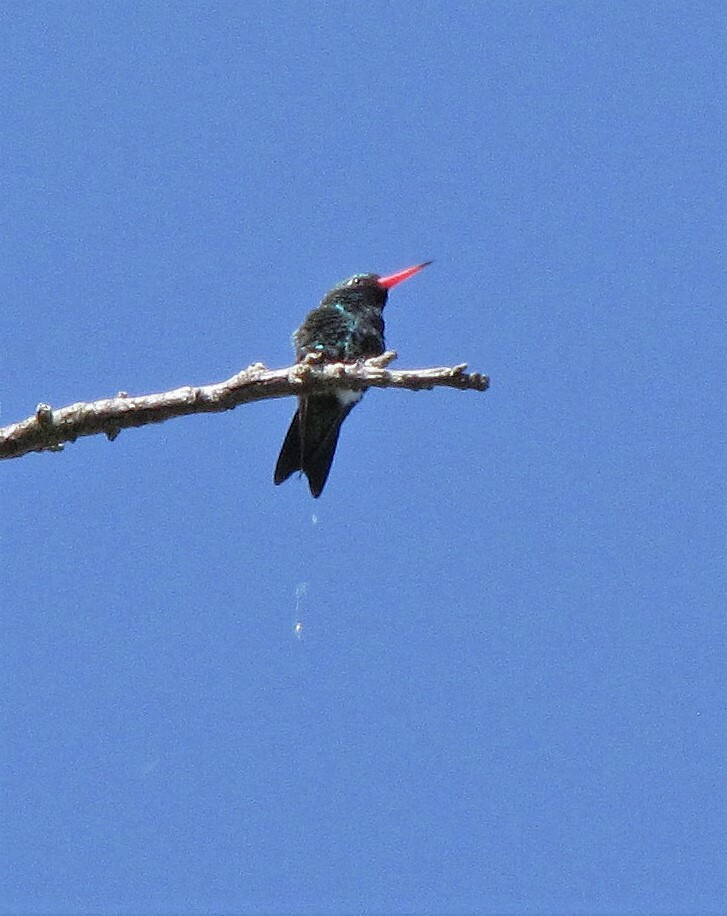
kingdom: Animalia
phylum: Chordata
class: Aves
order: Apodiformes
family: Trochilidae
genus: Chlorostilbon
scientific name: Chlorostilbon lucidus
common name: Glittering-bellied emerald
